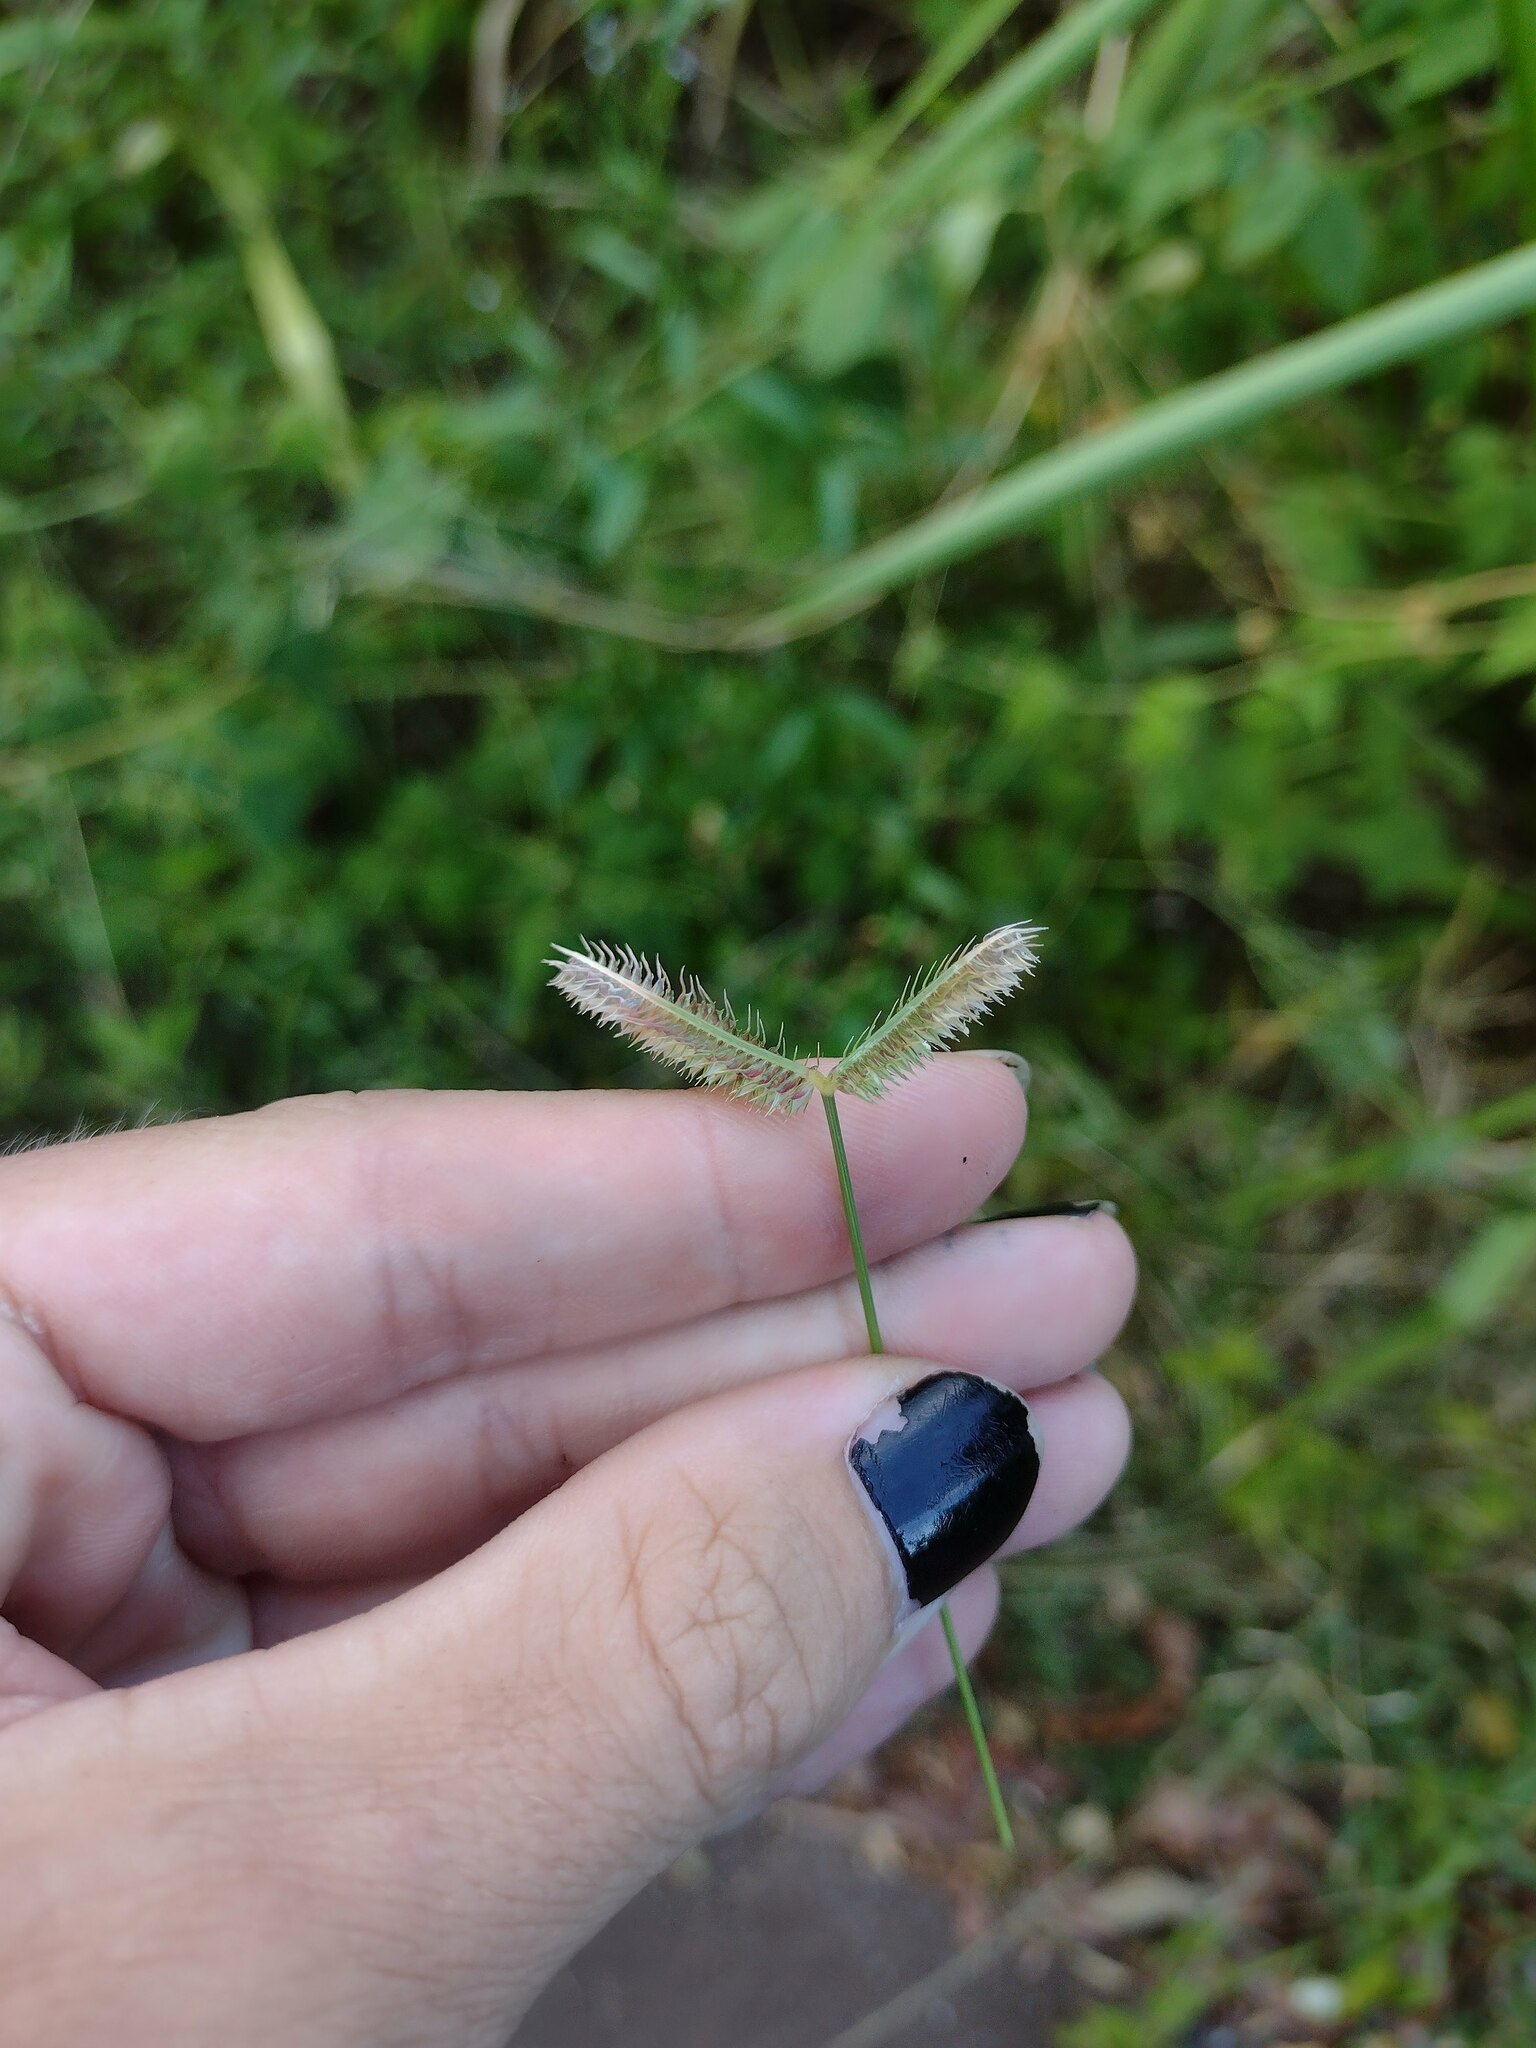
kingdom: Plantae
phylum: Tracheophyta
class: Liliopsida
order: Poales
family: Poaceae
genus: Dactyloctenium
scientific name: Dactyloctenium aegyptium
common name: Egyptian grass
